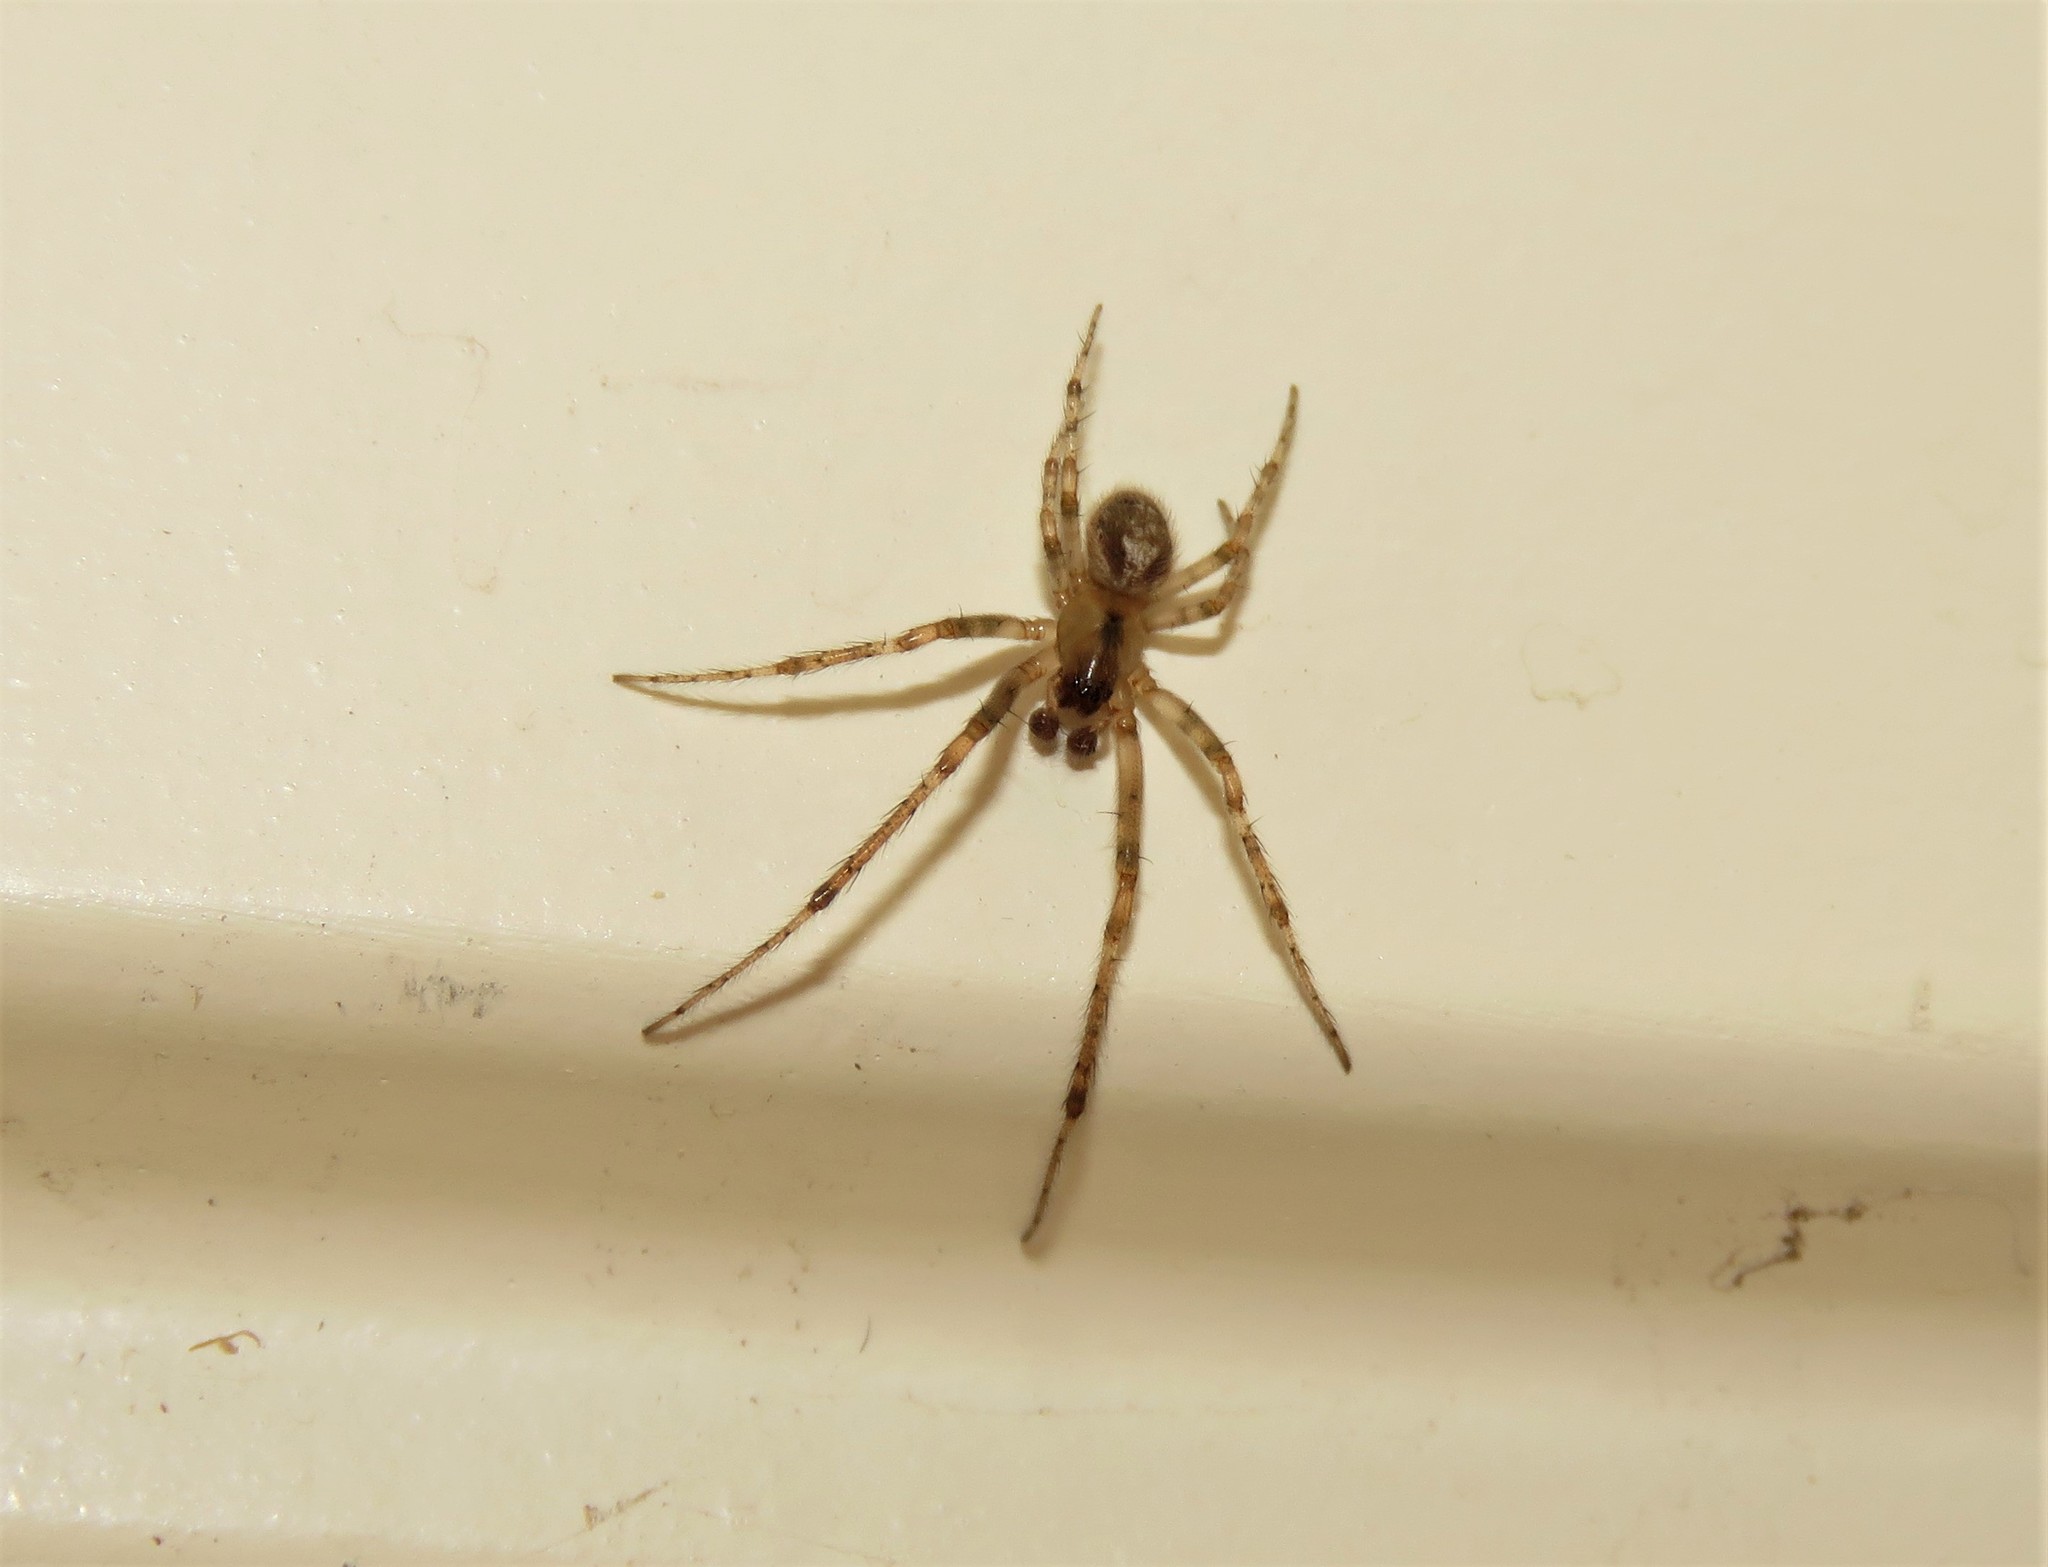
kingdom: Animalia
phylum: Arthropoda
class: Arachnida
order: Araneae
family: Araneidae
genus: Zygiella
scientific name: Zygiella x-notata
